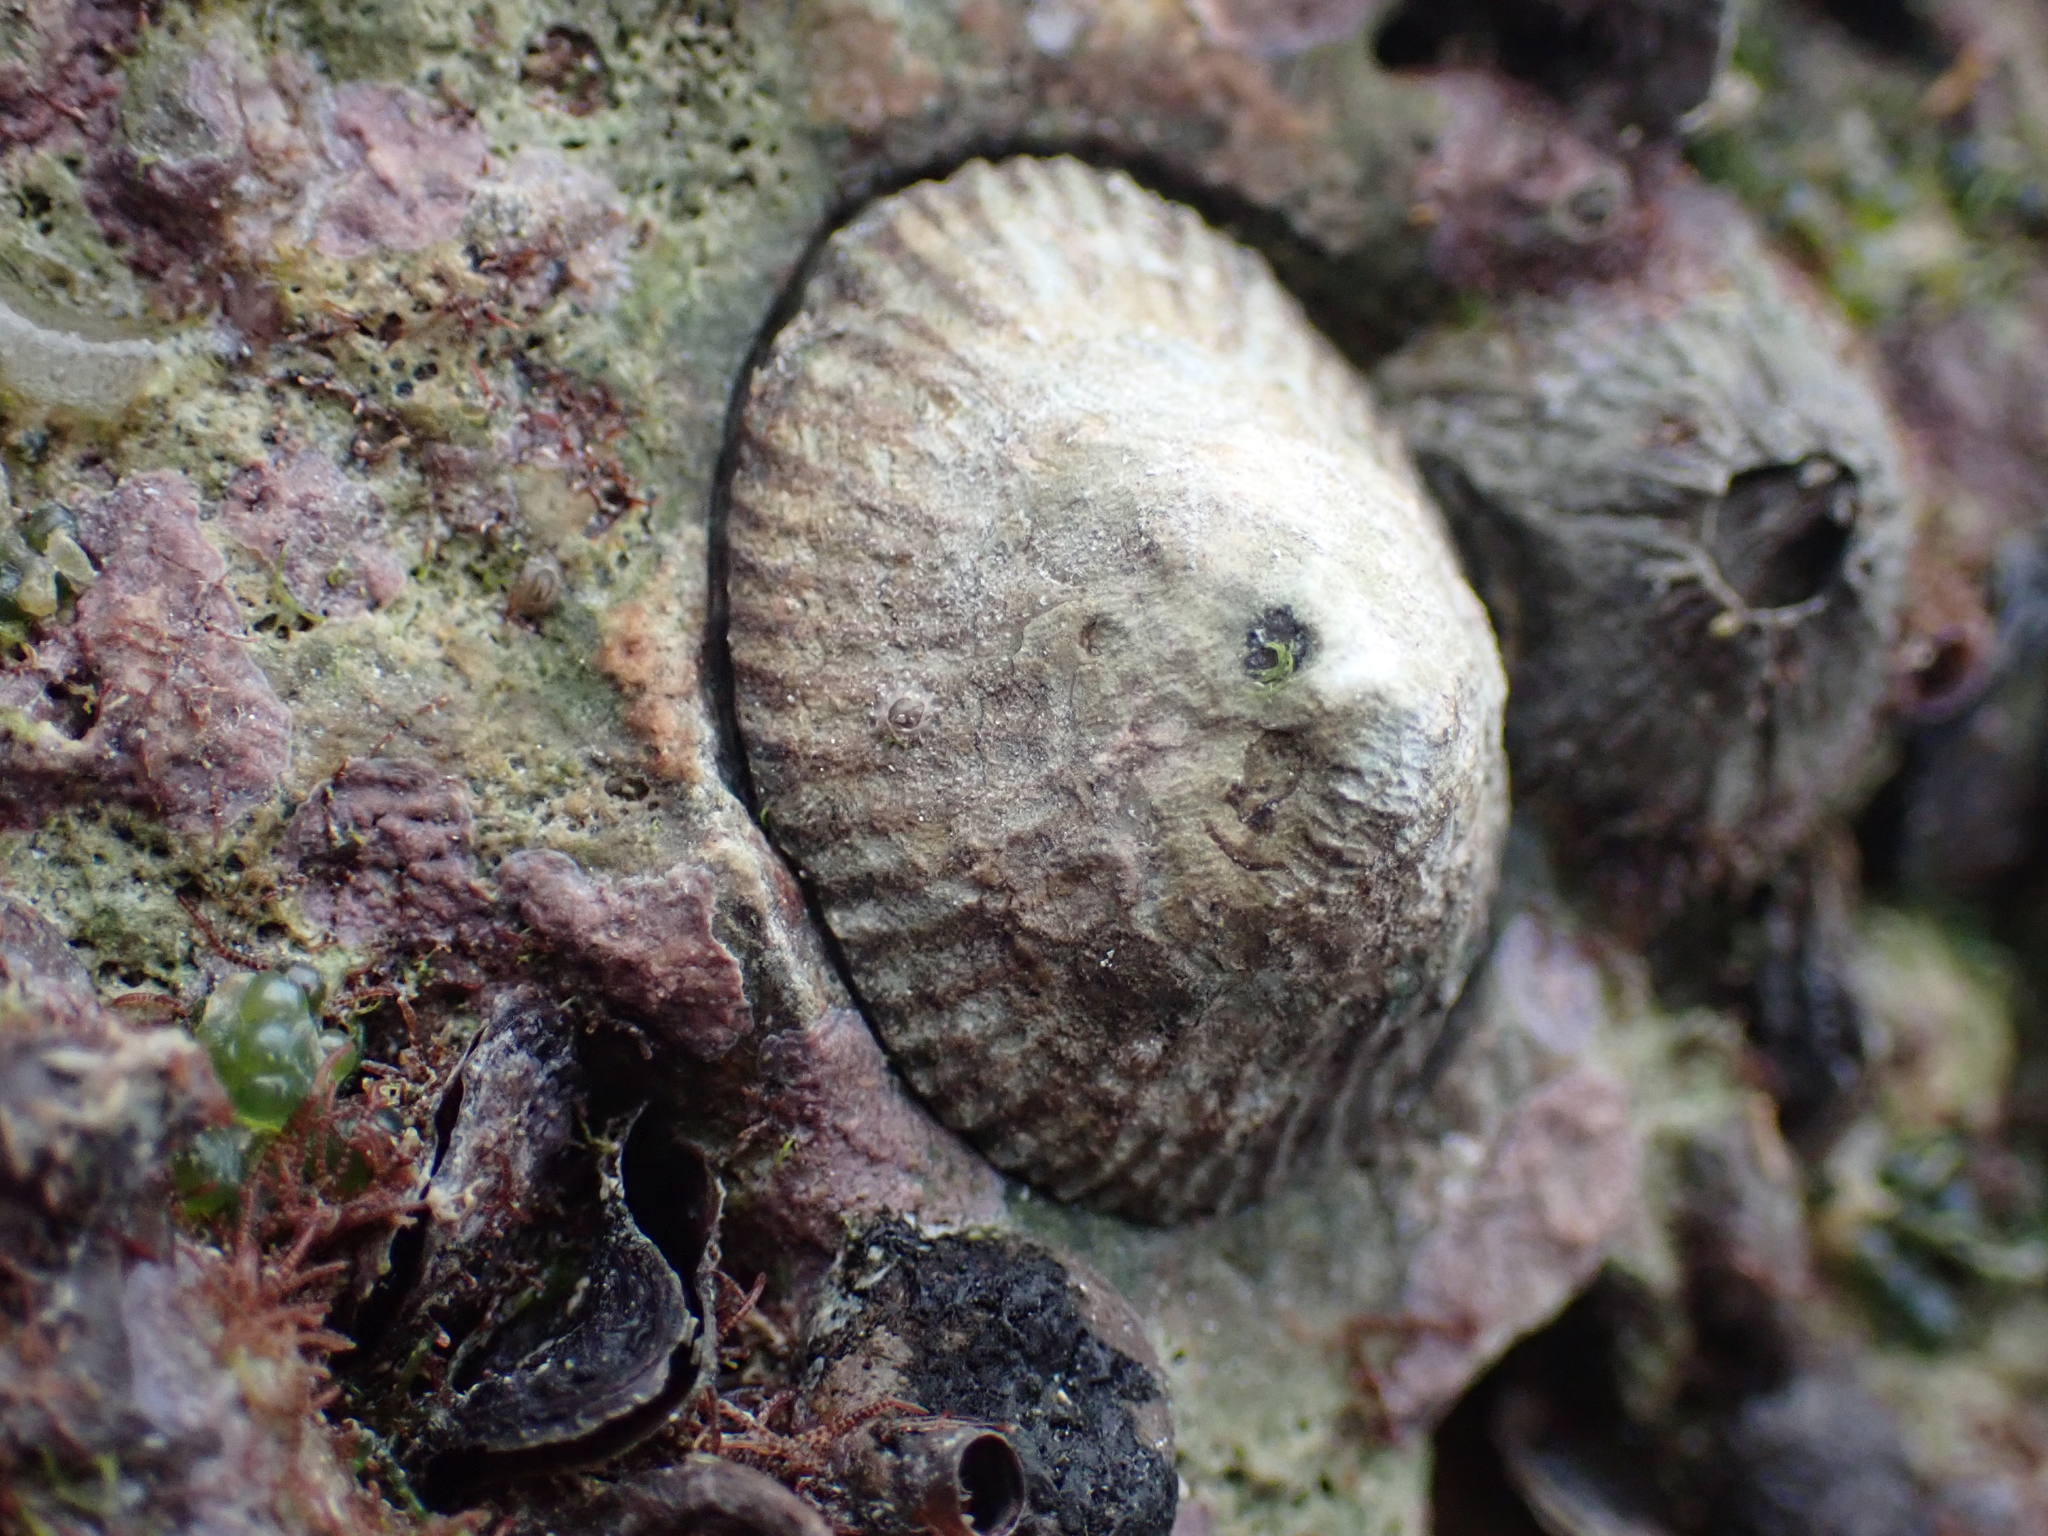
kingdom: Animalia
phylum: Mollusca
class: Gastropoda
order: Siphonariida
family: Siphonariidae
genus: Siphonaria
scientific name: Siphonaria naufragum
